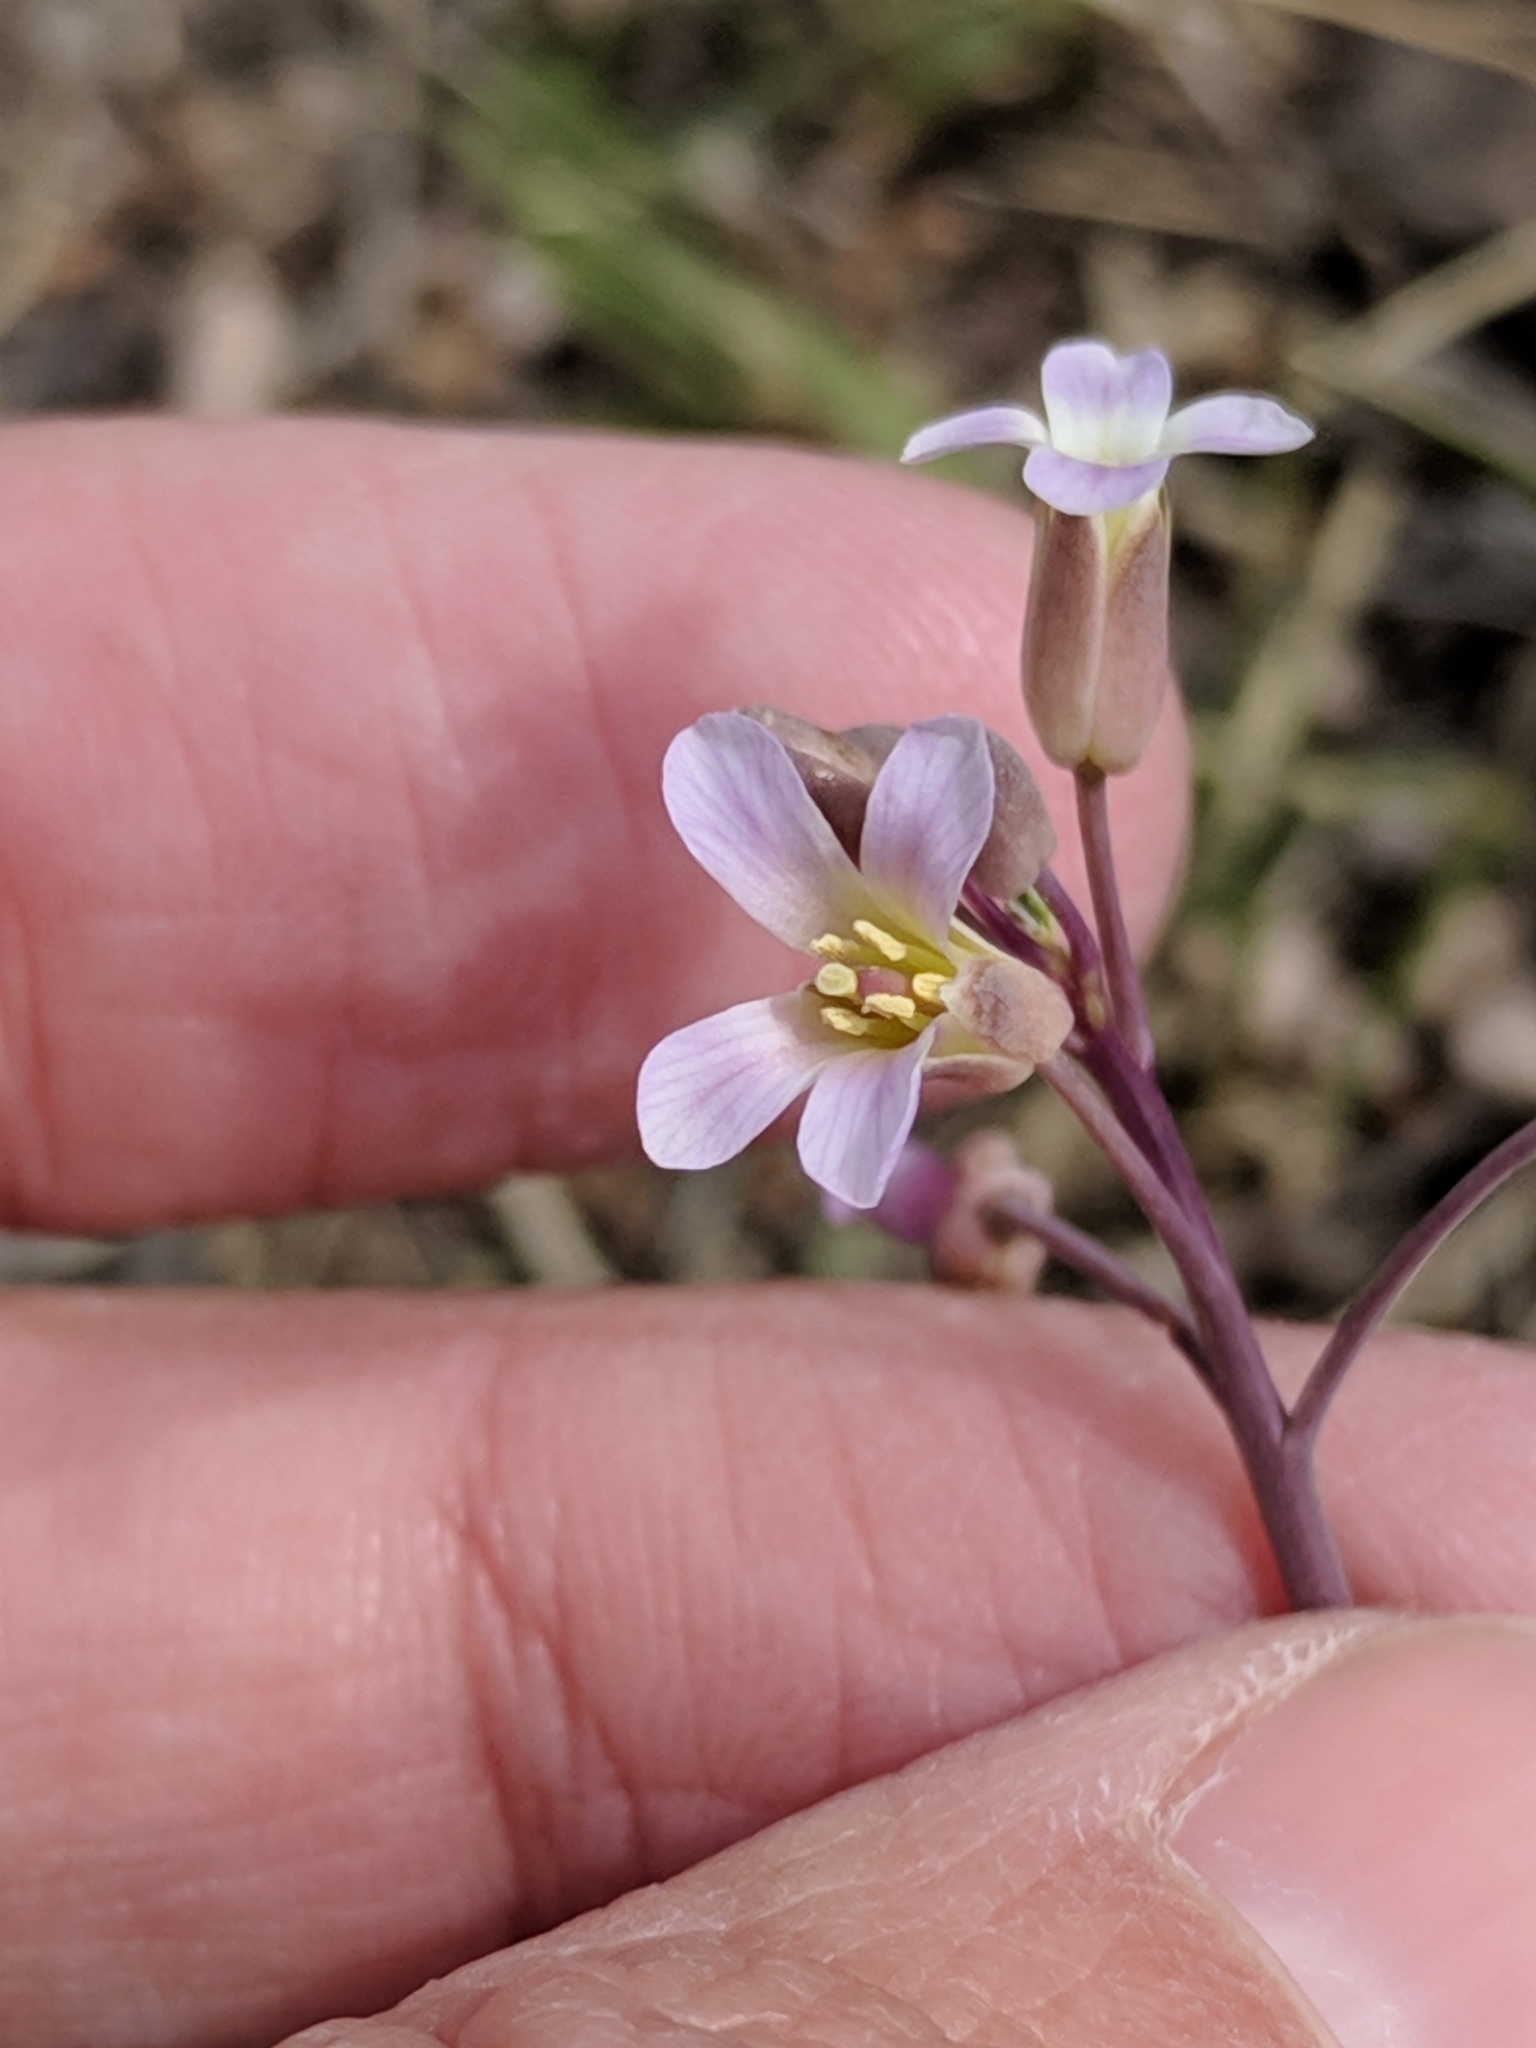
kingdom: Plantae
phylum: Tracheophyta
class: Magnoliopsida
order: Brassicales
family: Brassicaceae
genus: Boechera
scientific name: Boechera texana
